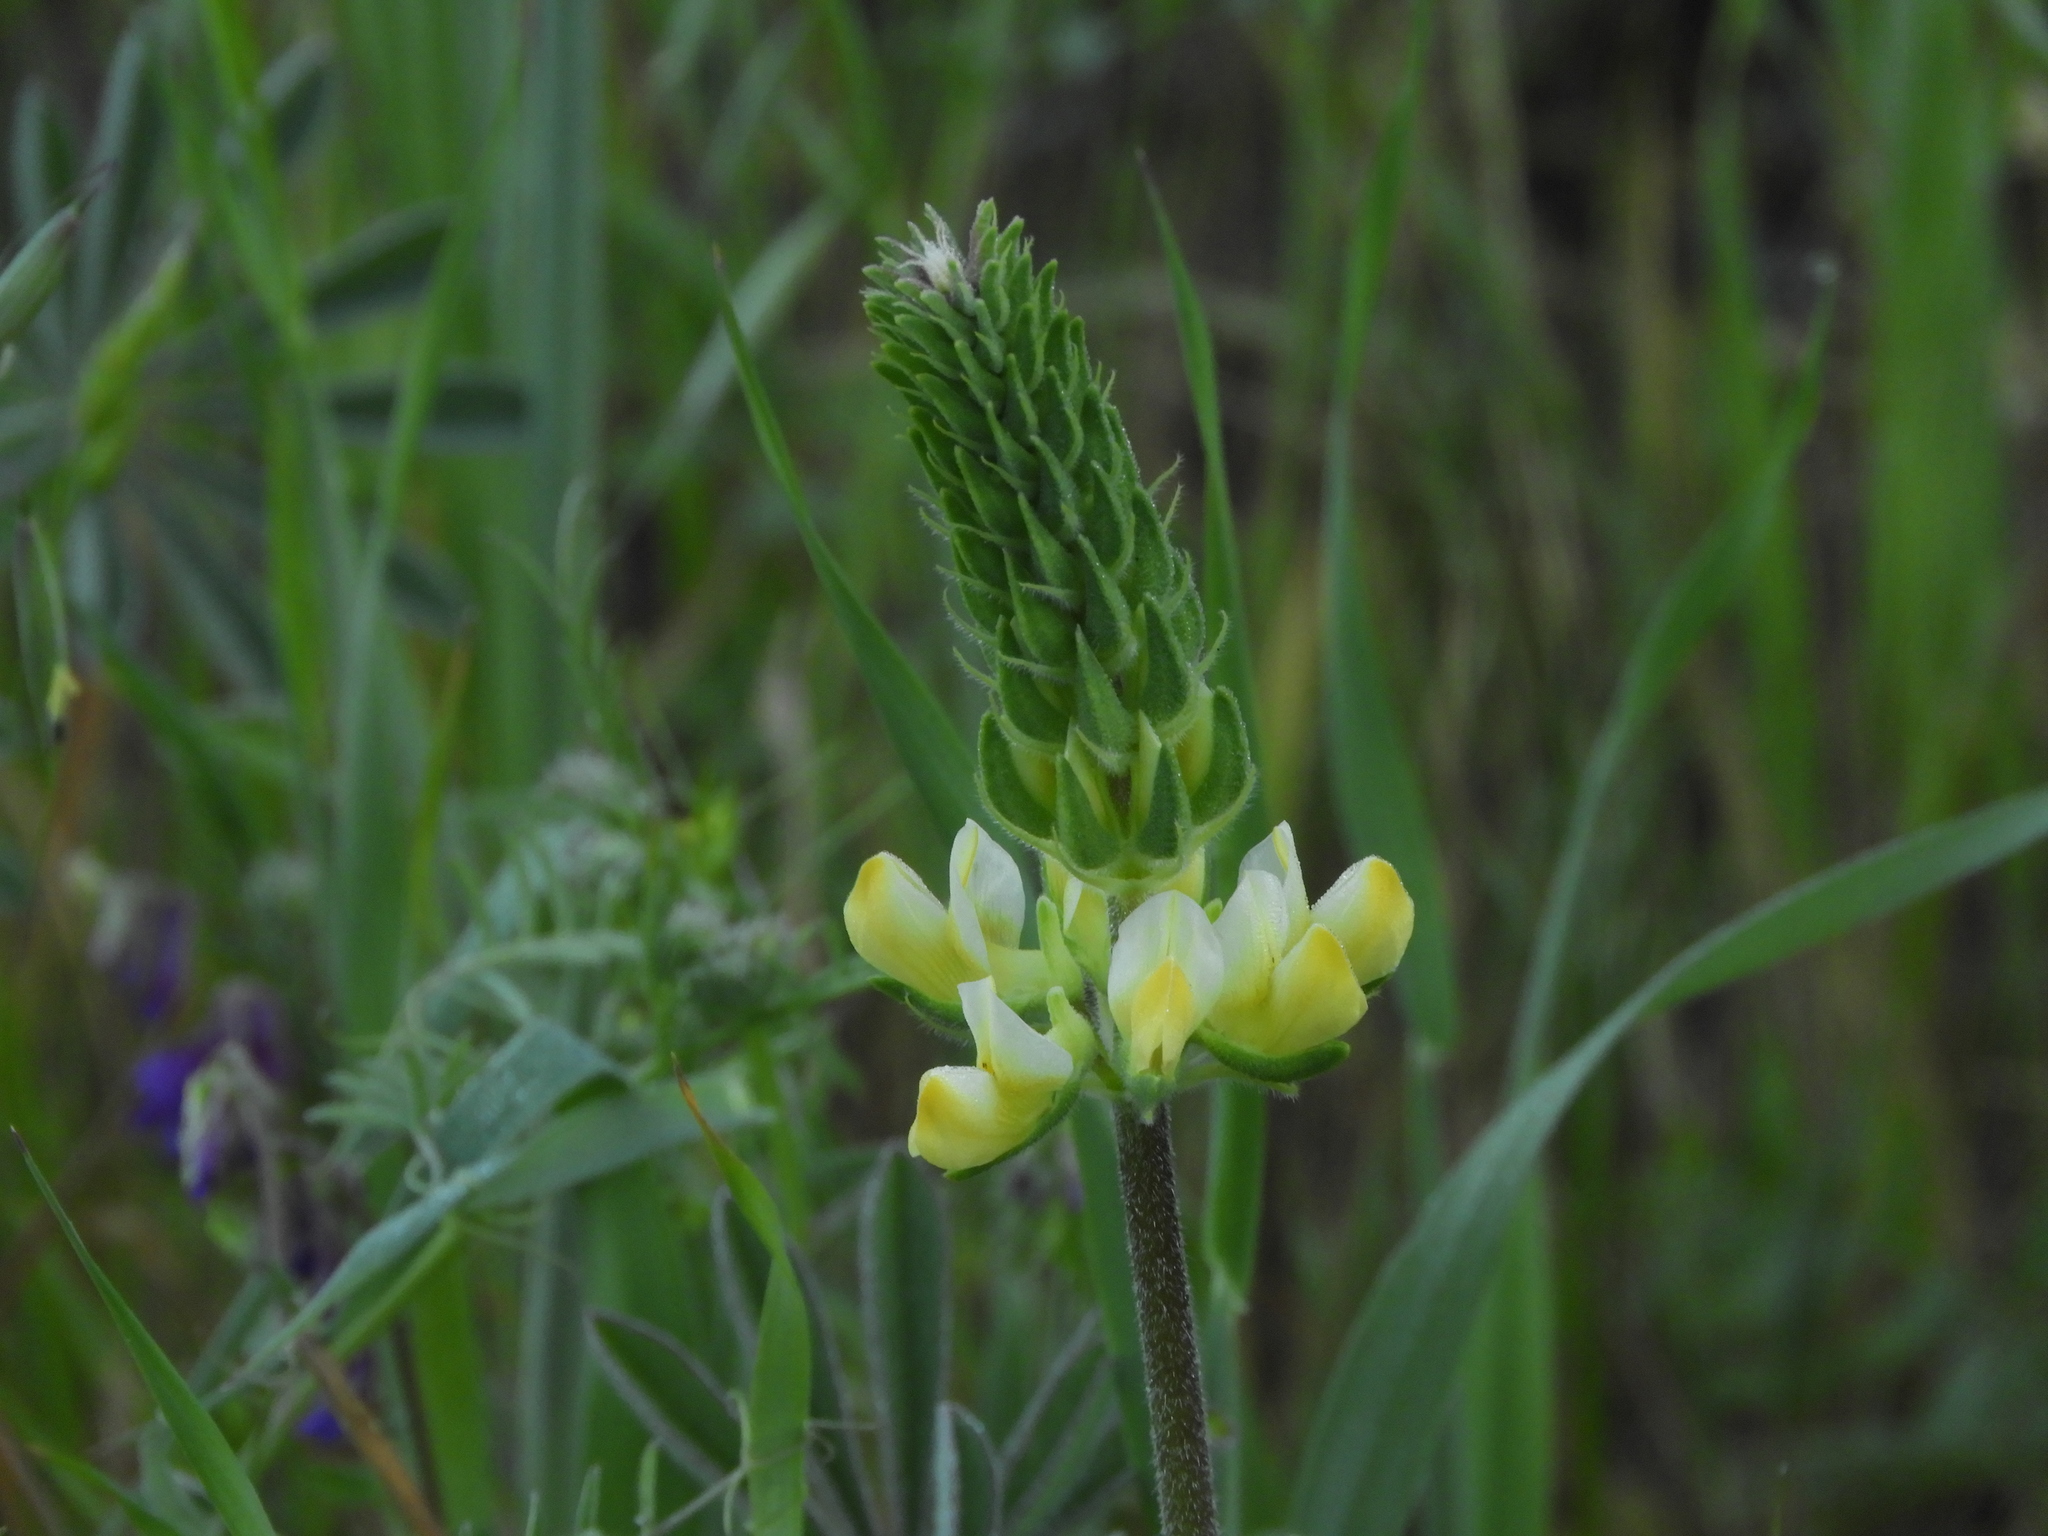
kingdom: Plantae
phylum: Tracheophyta
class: Magnoliopsida
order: Fabales
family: Fabaceae
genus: Lupinus
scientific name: Lupinus microcarpus
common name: Chick lupine
